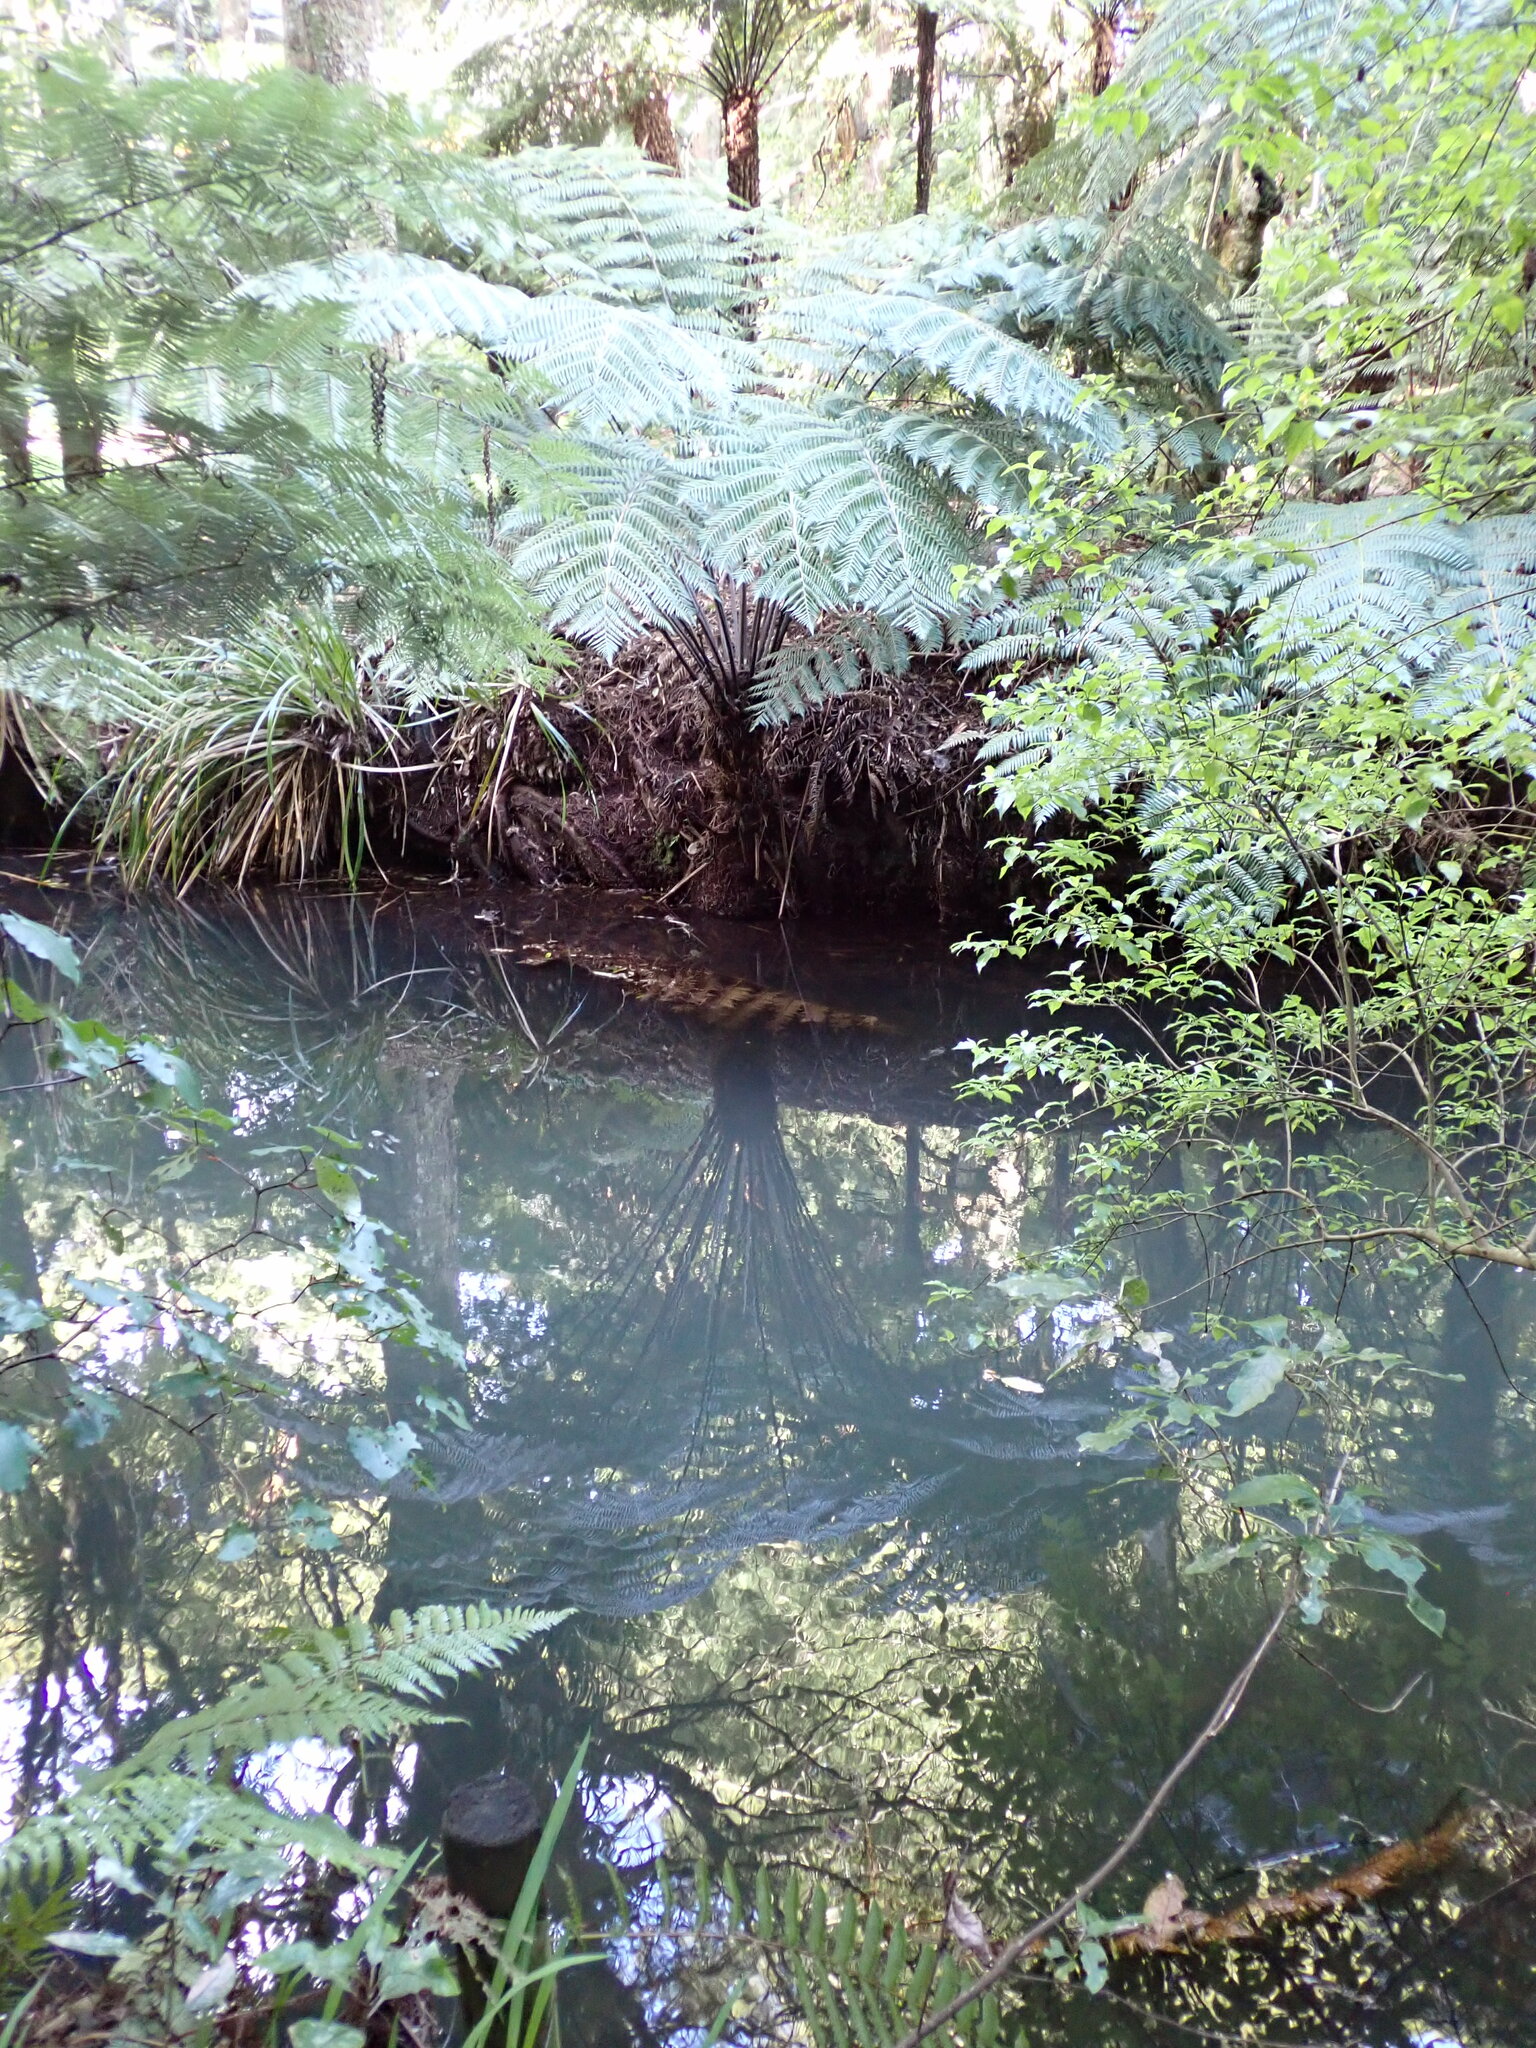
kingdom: Plantae
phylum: Tracheophyta
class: Polypodiopsida
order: Cyatheales
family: Cyatheaceae
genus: Alsophila
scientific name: Alsophila dealbata
